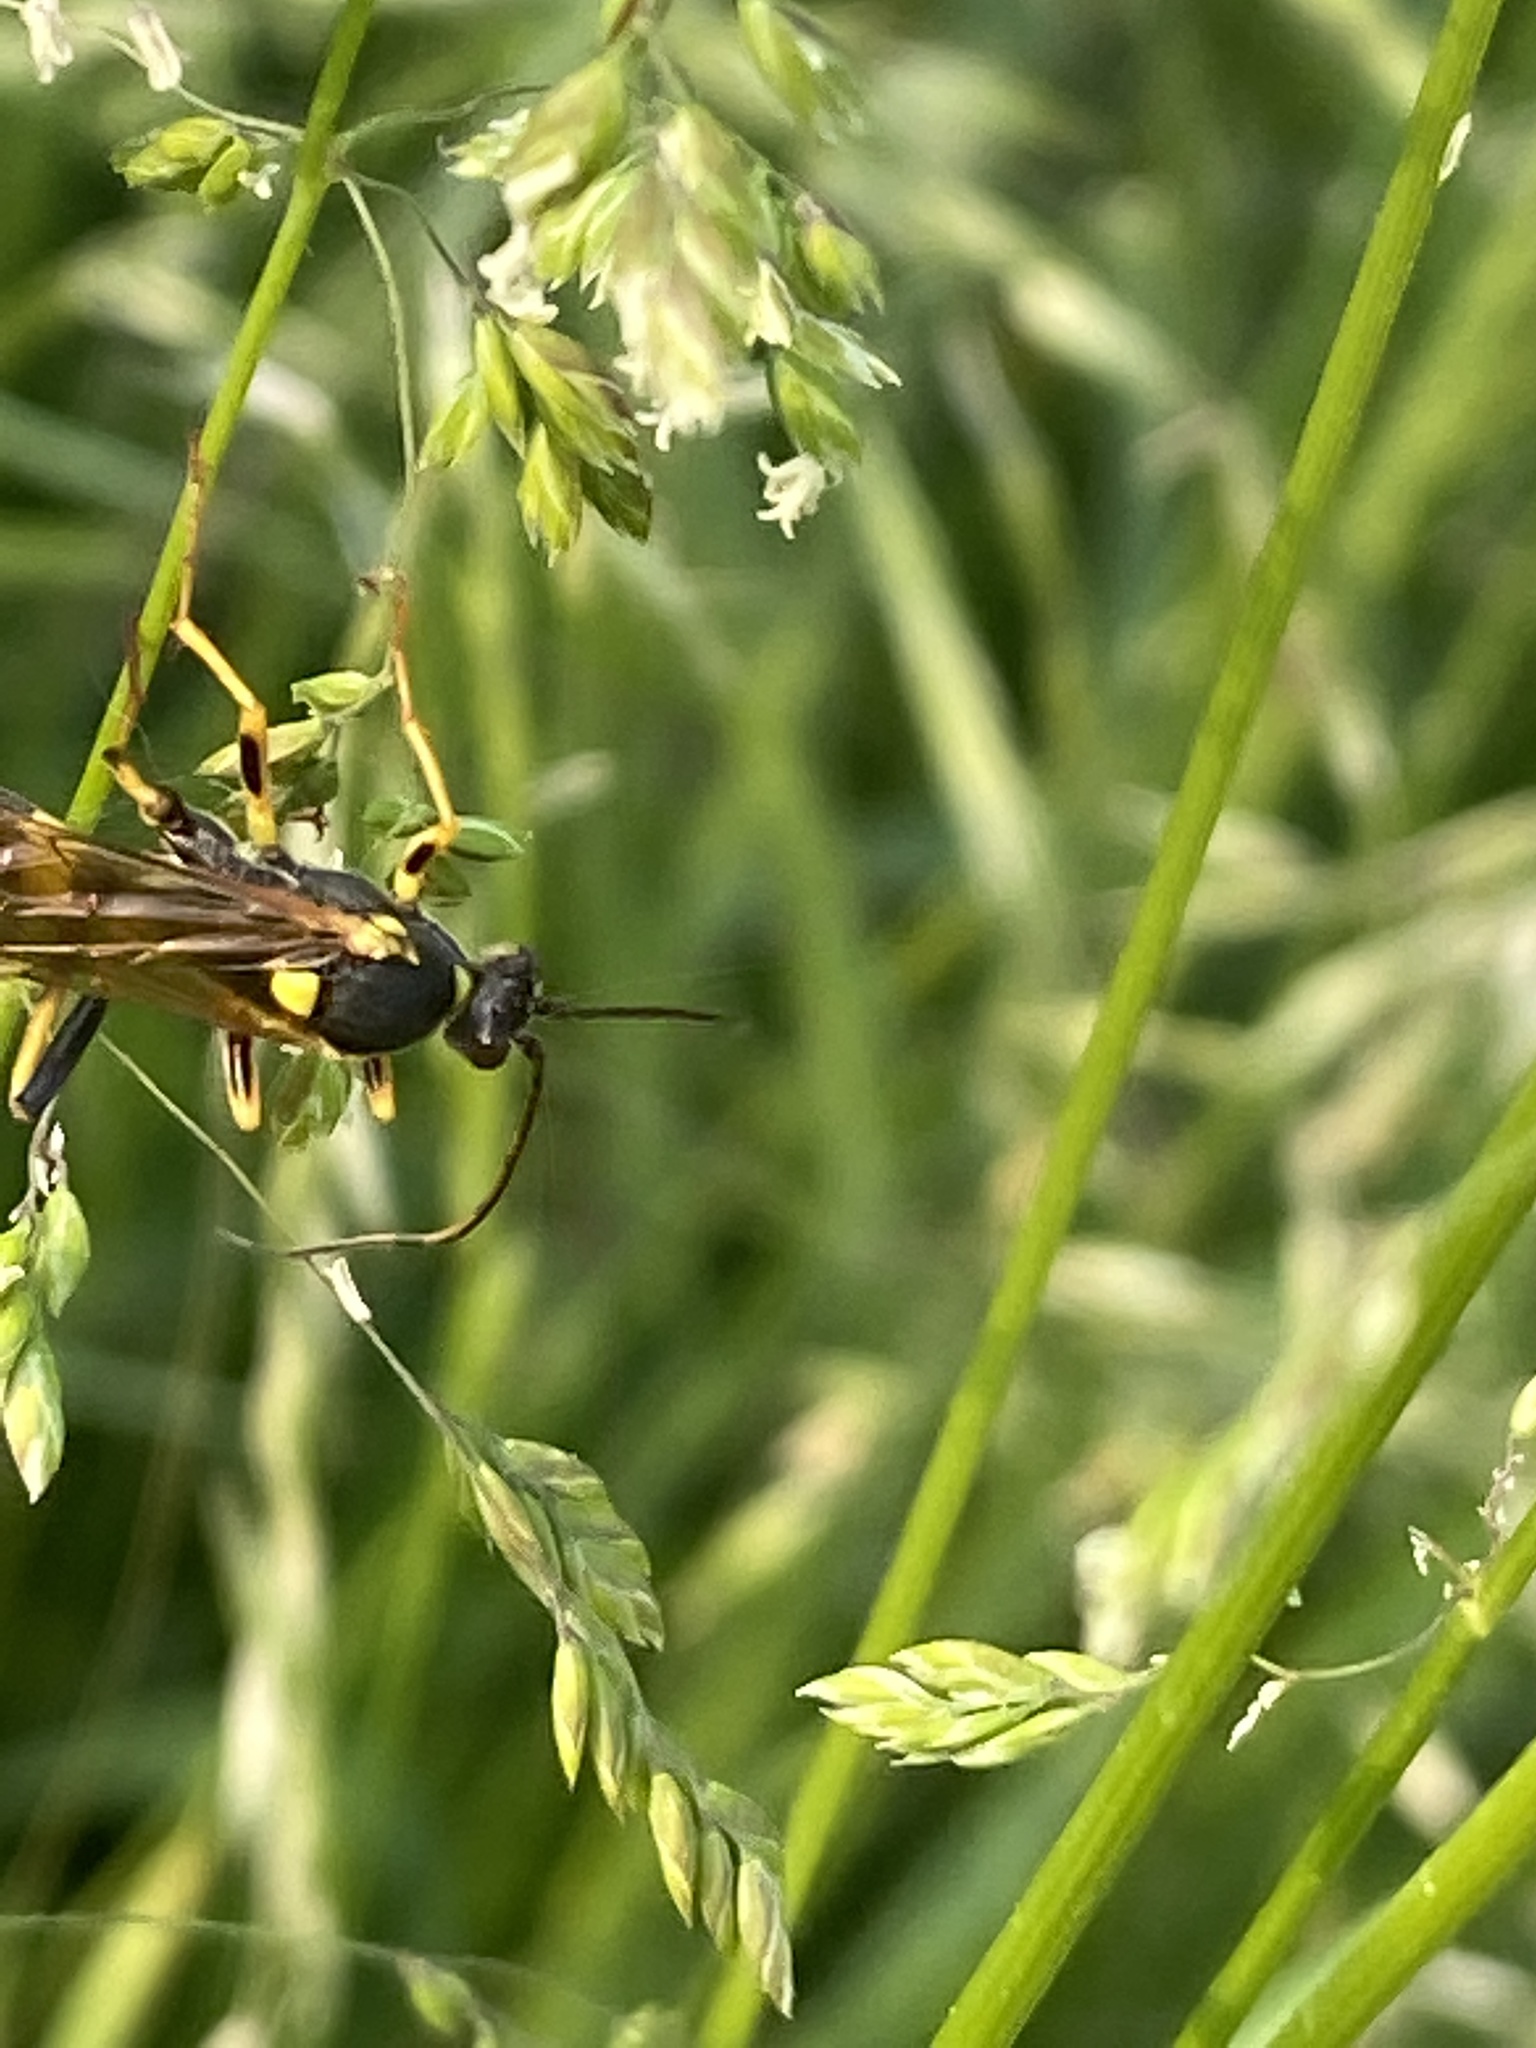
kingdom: Animalia
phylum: Arthropoda
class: Insecta
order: Hymenoptera
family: Ichneumonidae
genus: Amblyteles
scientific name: Amblyteles armatorius
